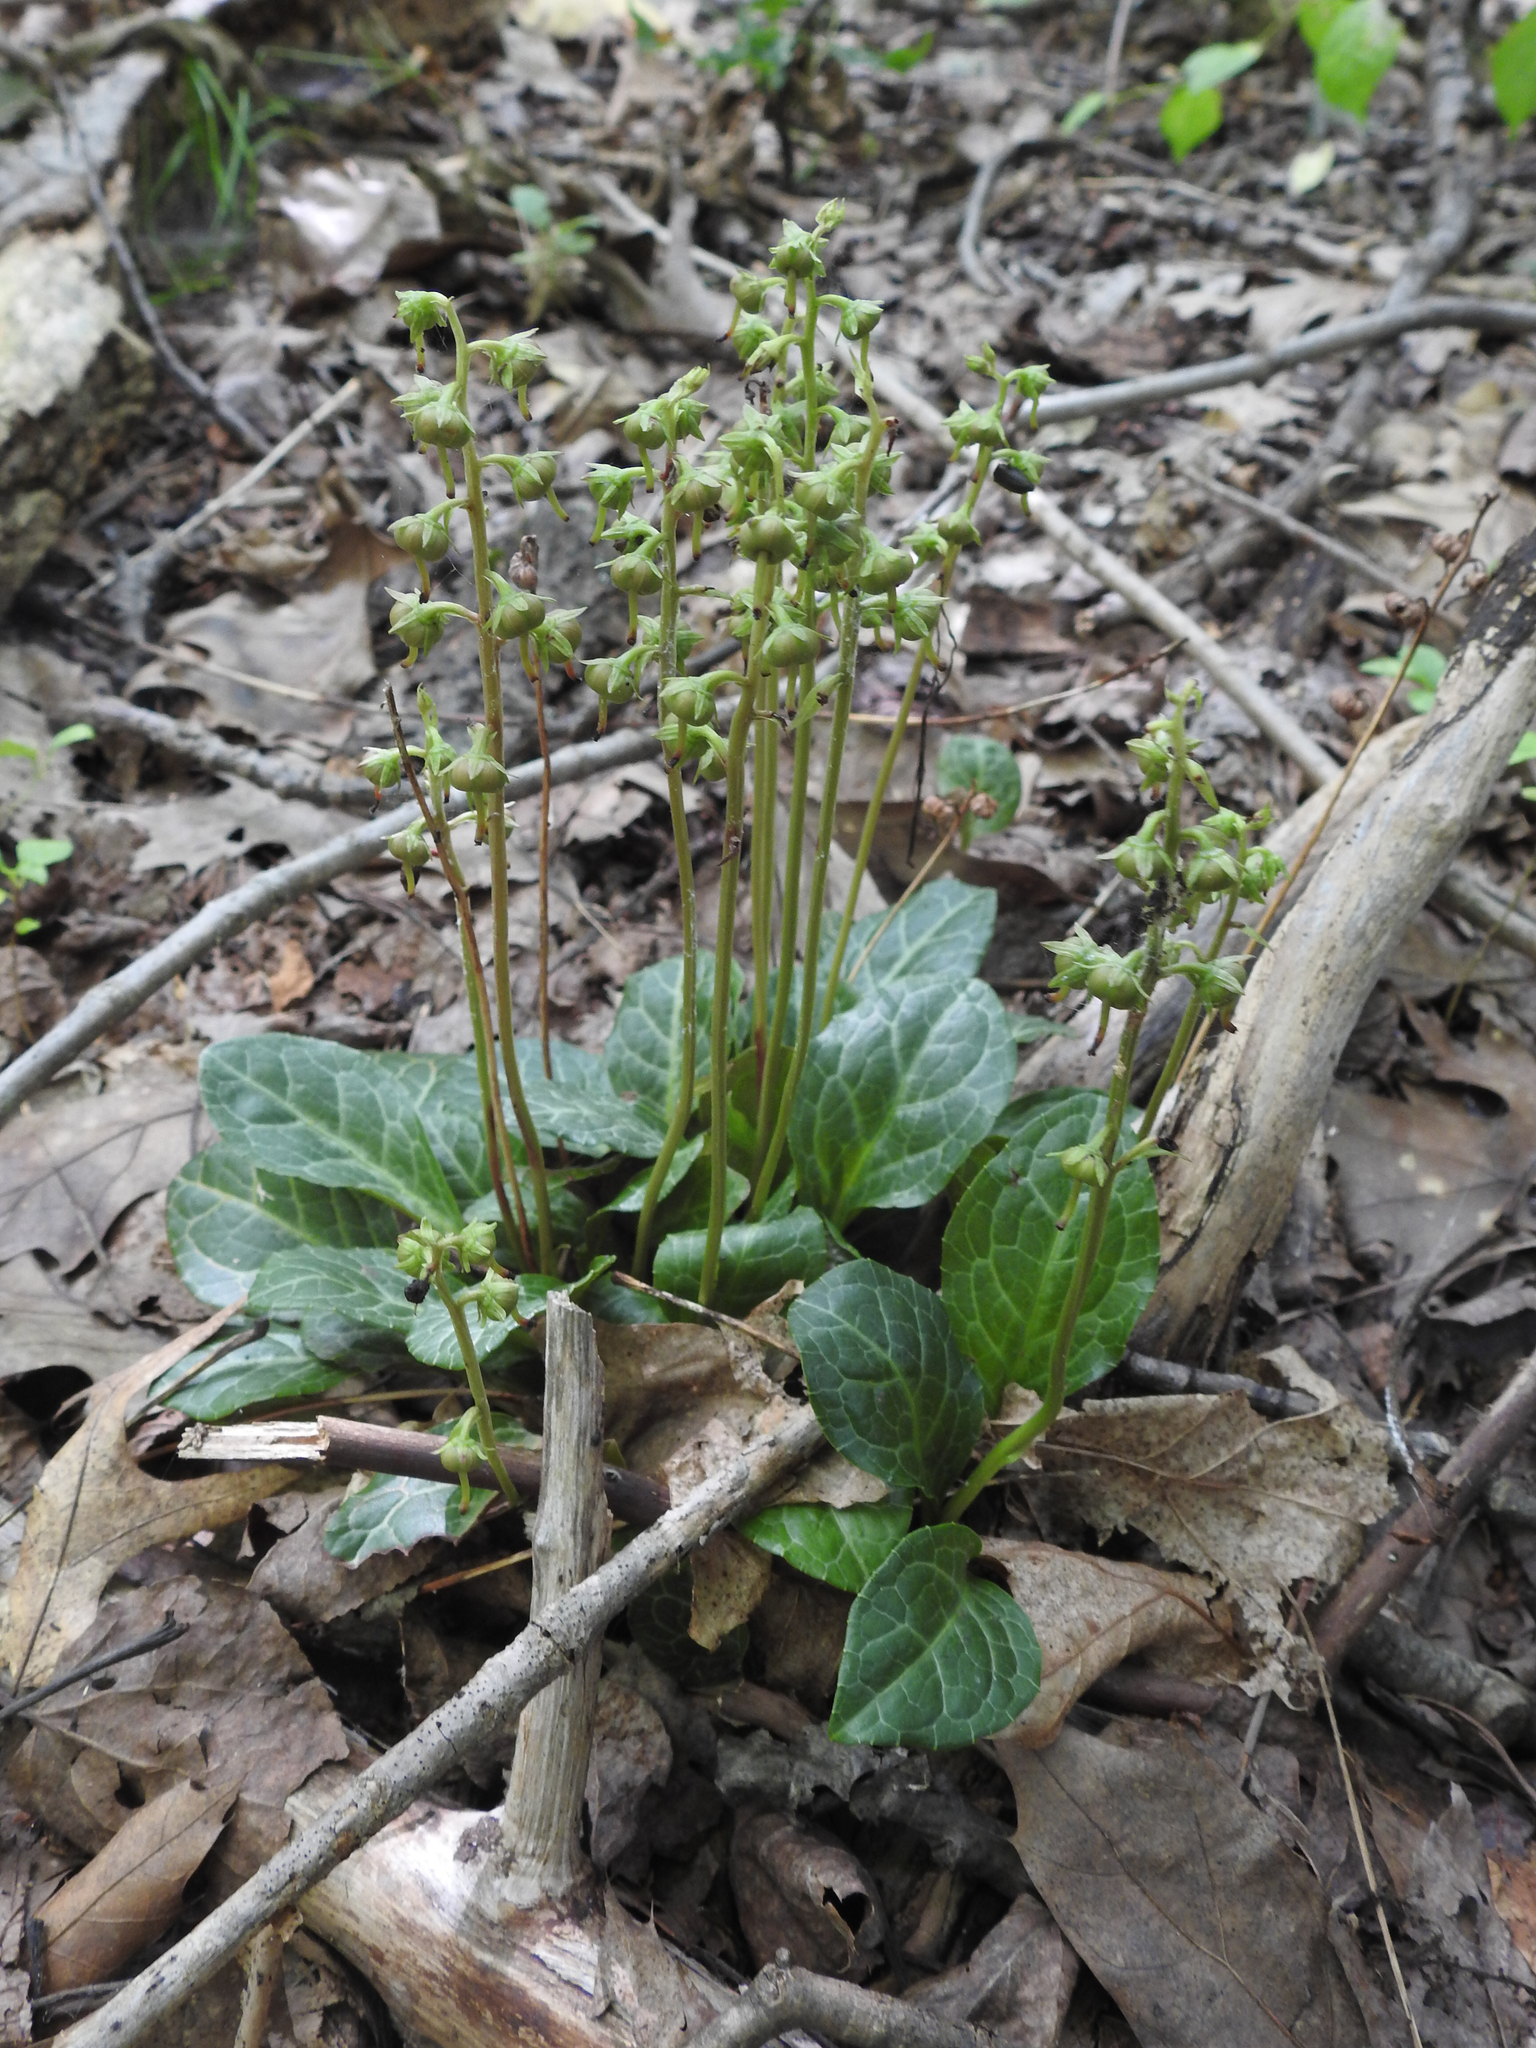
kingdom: Plantae
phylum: Tracheophyta
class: Magnoliopsida
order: Ericales
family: Ericaceae
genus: Pyrola
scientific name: Pyrola americana
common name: American wintergreen
